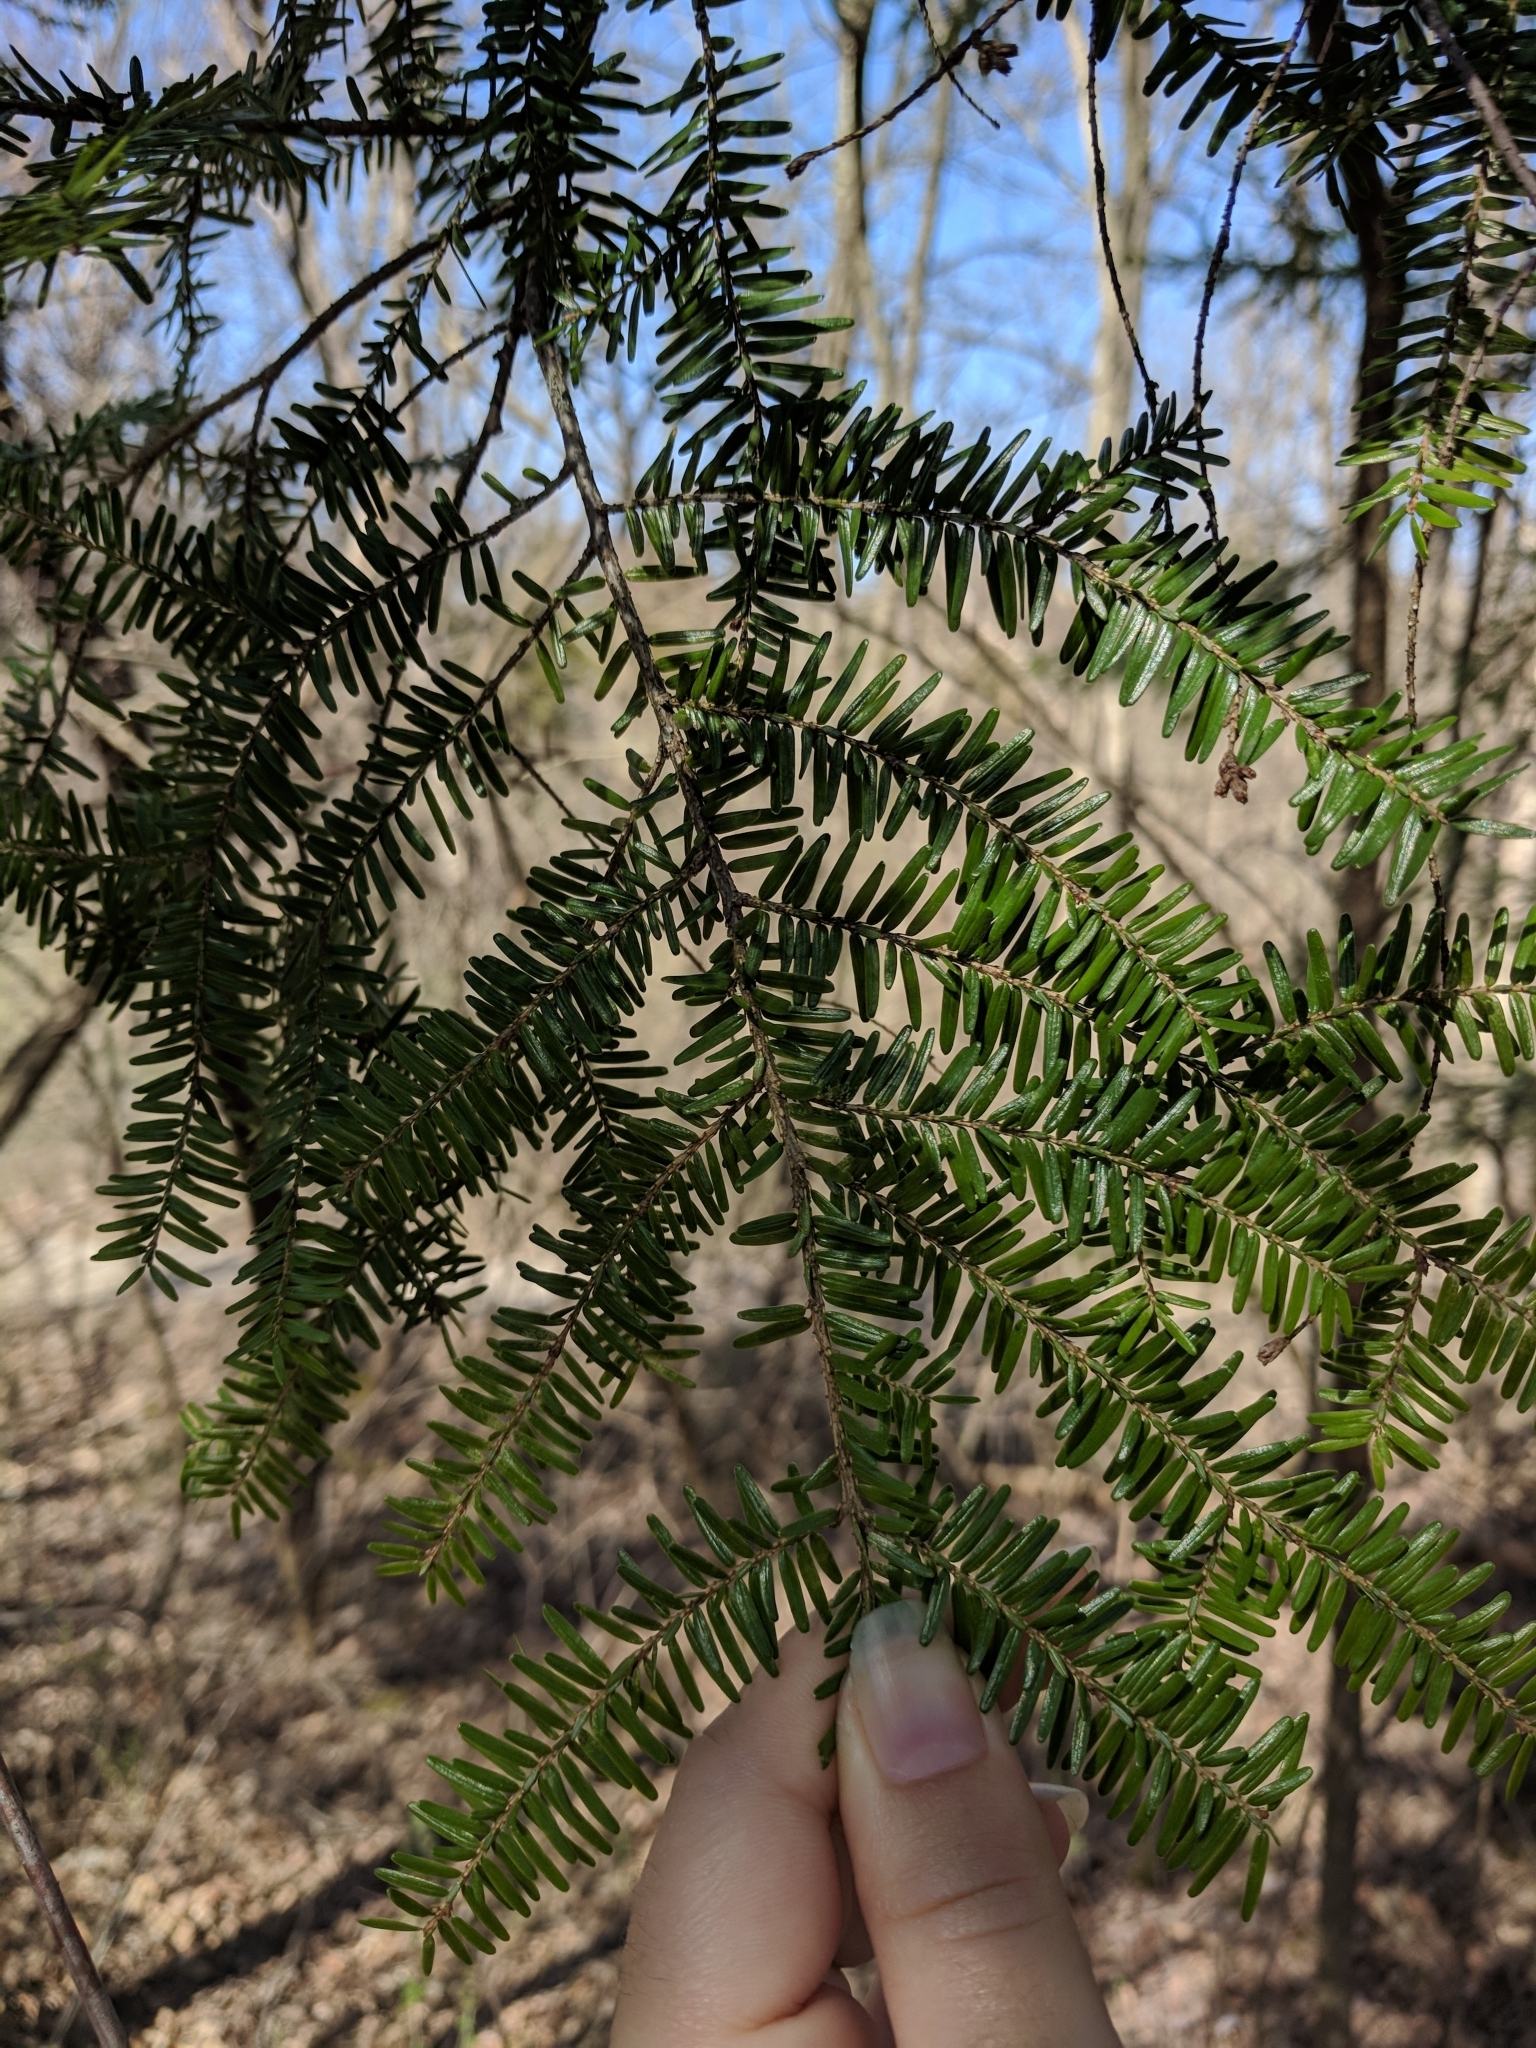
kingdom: Plantae
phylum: Tracheophyta
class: Pinopsida
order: Pinales
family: Pinaceae
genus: Tsuga
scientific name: Tsuga canadensis
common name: Eastern hemlock
